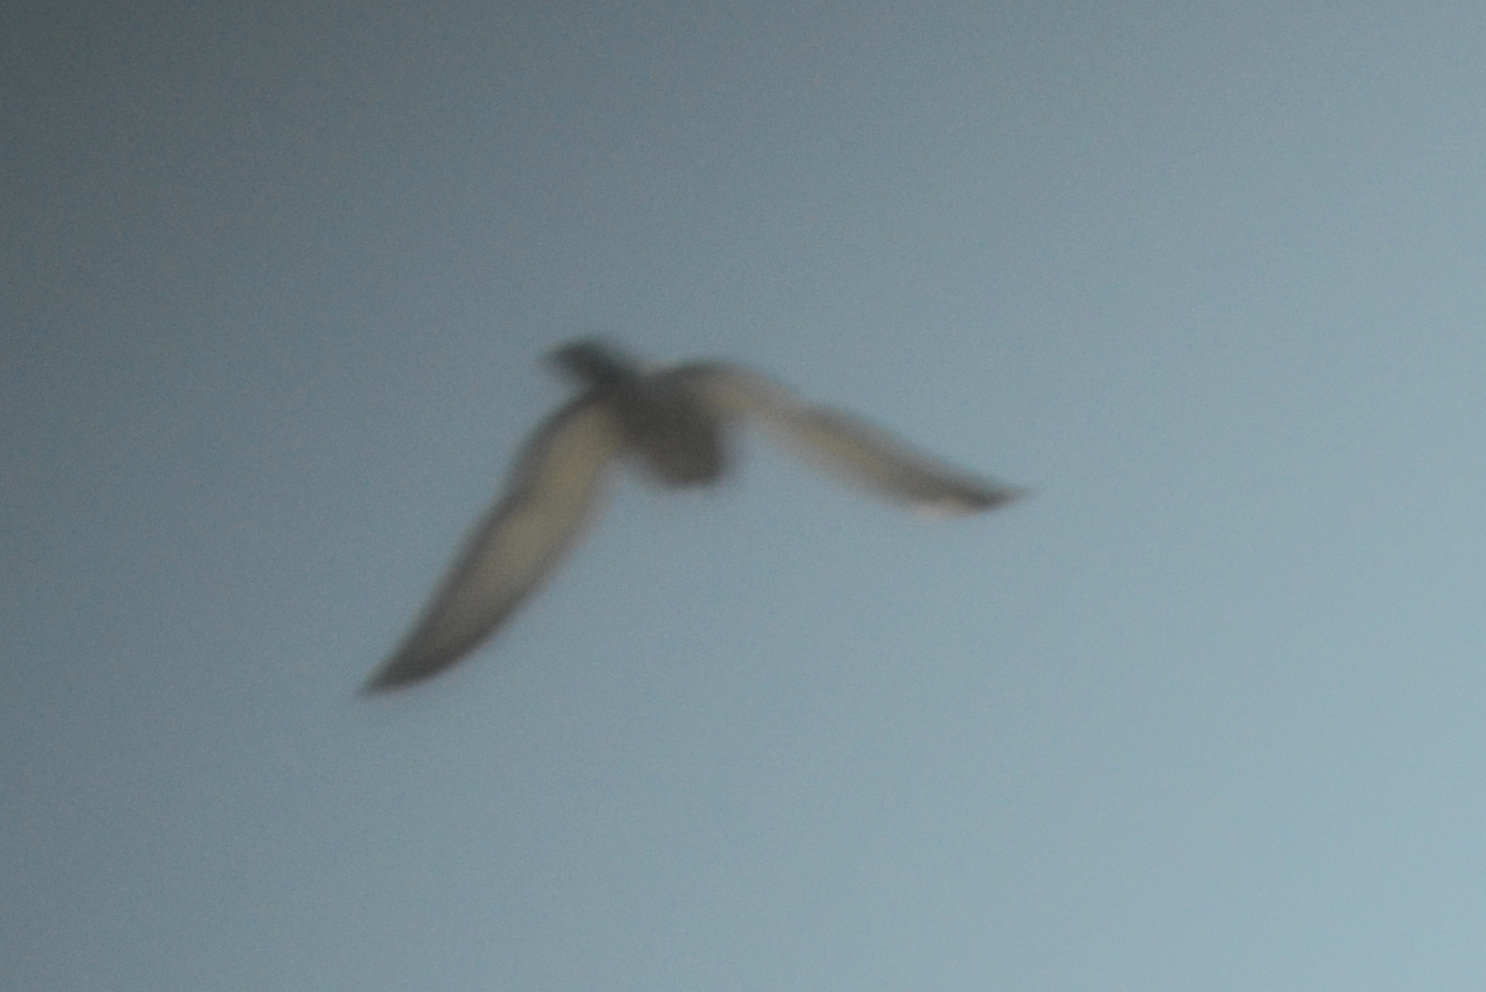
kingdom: Animalia
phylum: Chordata
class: Aves
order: Columbiformes
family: Columbidae
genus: Columba
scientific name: Columba livia
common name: Rock pigeon
